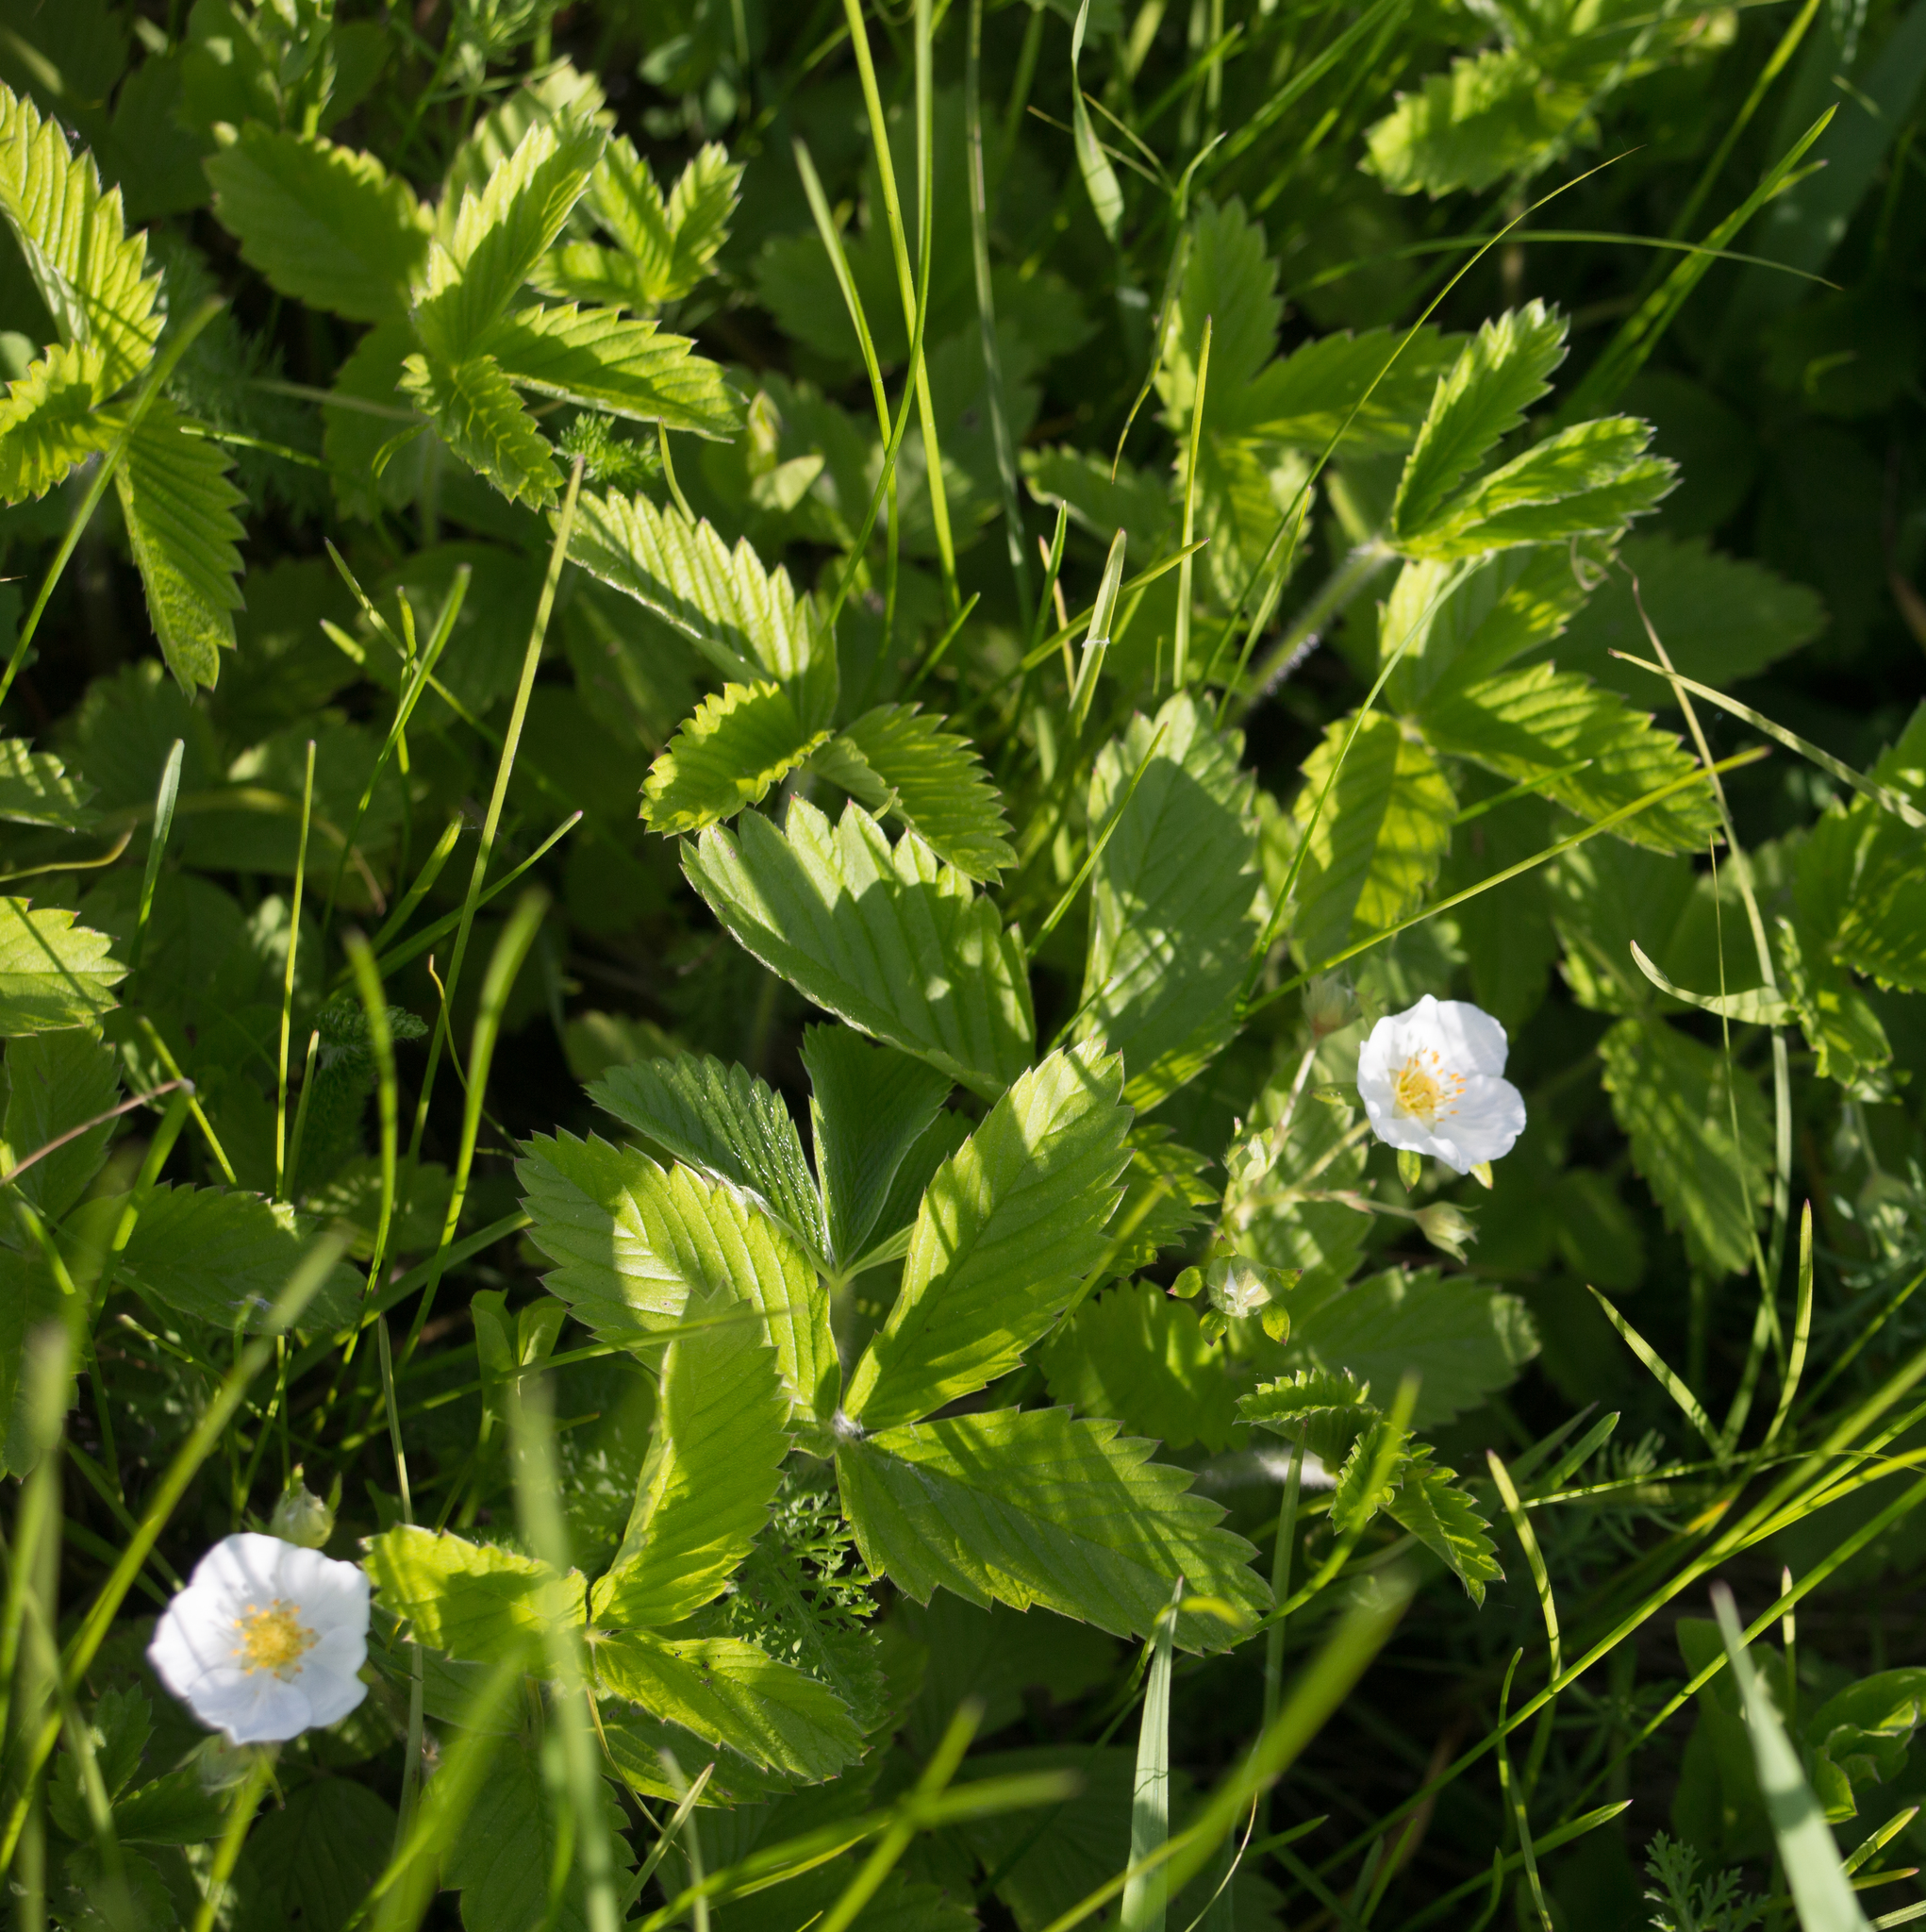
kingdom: Plantae
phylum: Tracheophyta
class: Magnoliopsida
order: Rosales
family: Rosaceae
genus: Fragaria
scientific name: Fragaria viridis
